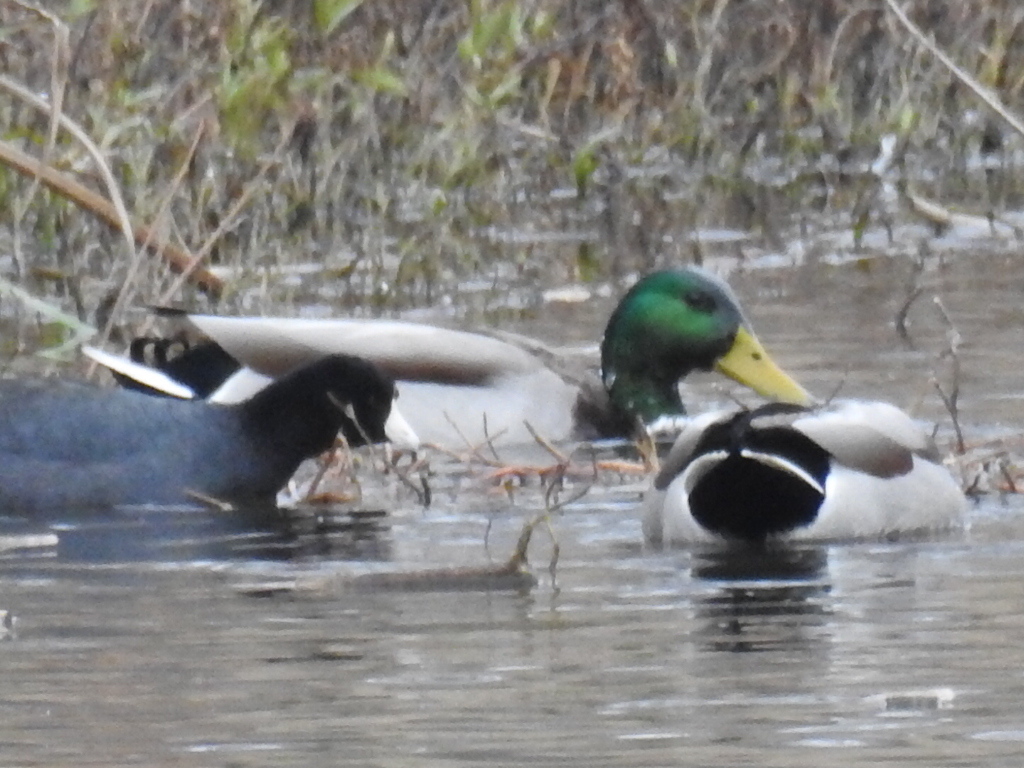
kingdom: Animalia
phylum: Chordata
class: Aves
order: Anseriformes
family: Anatidae
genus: Anas
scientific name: Anas platyrhynchos
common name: Mallard
